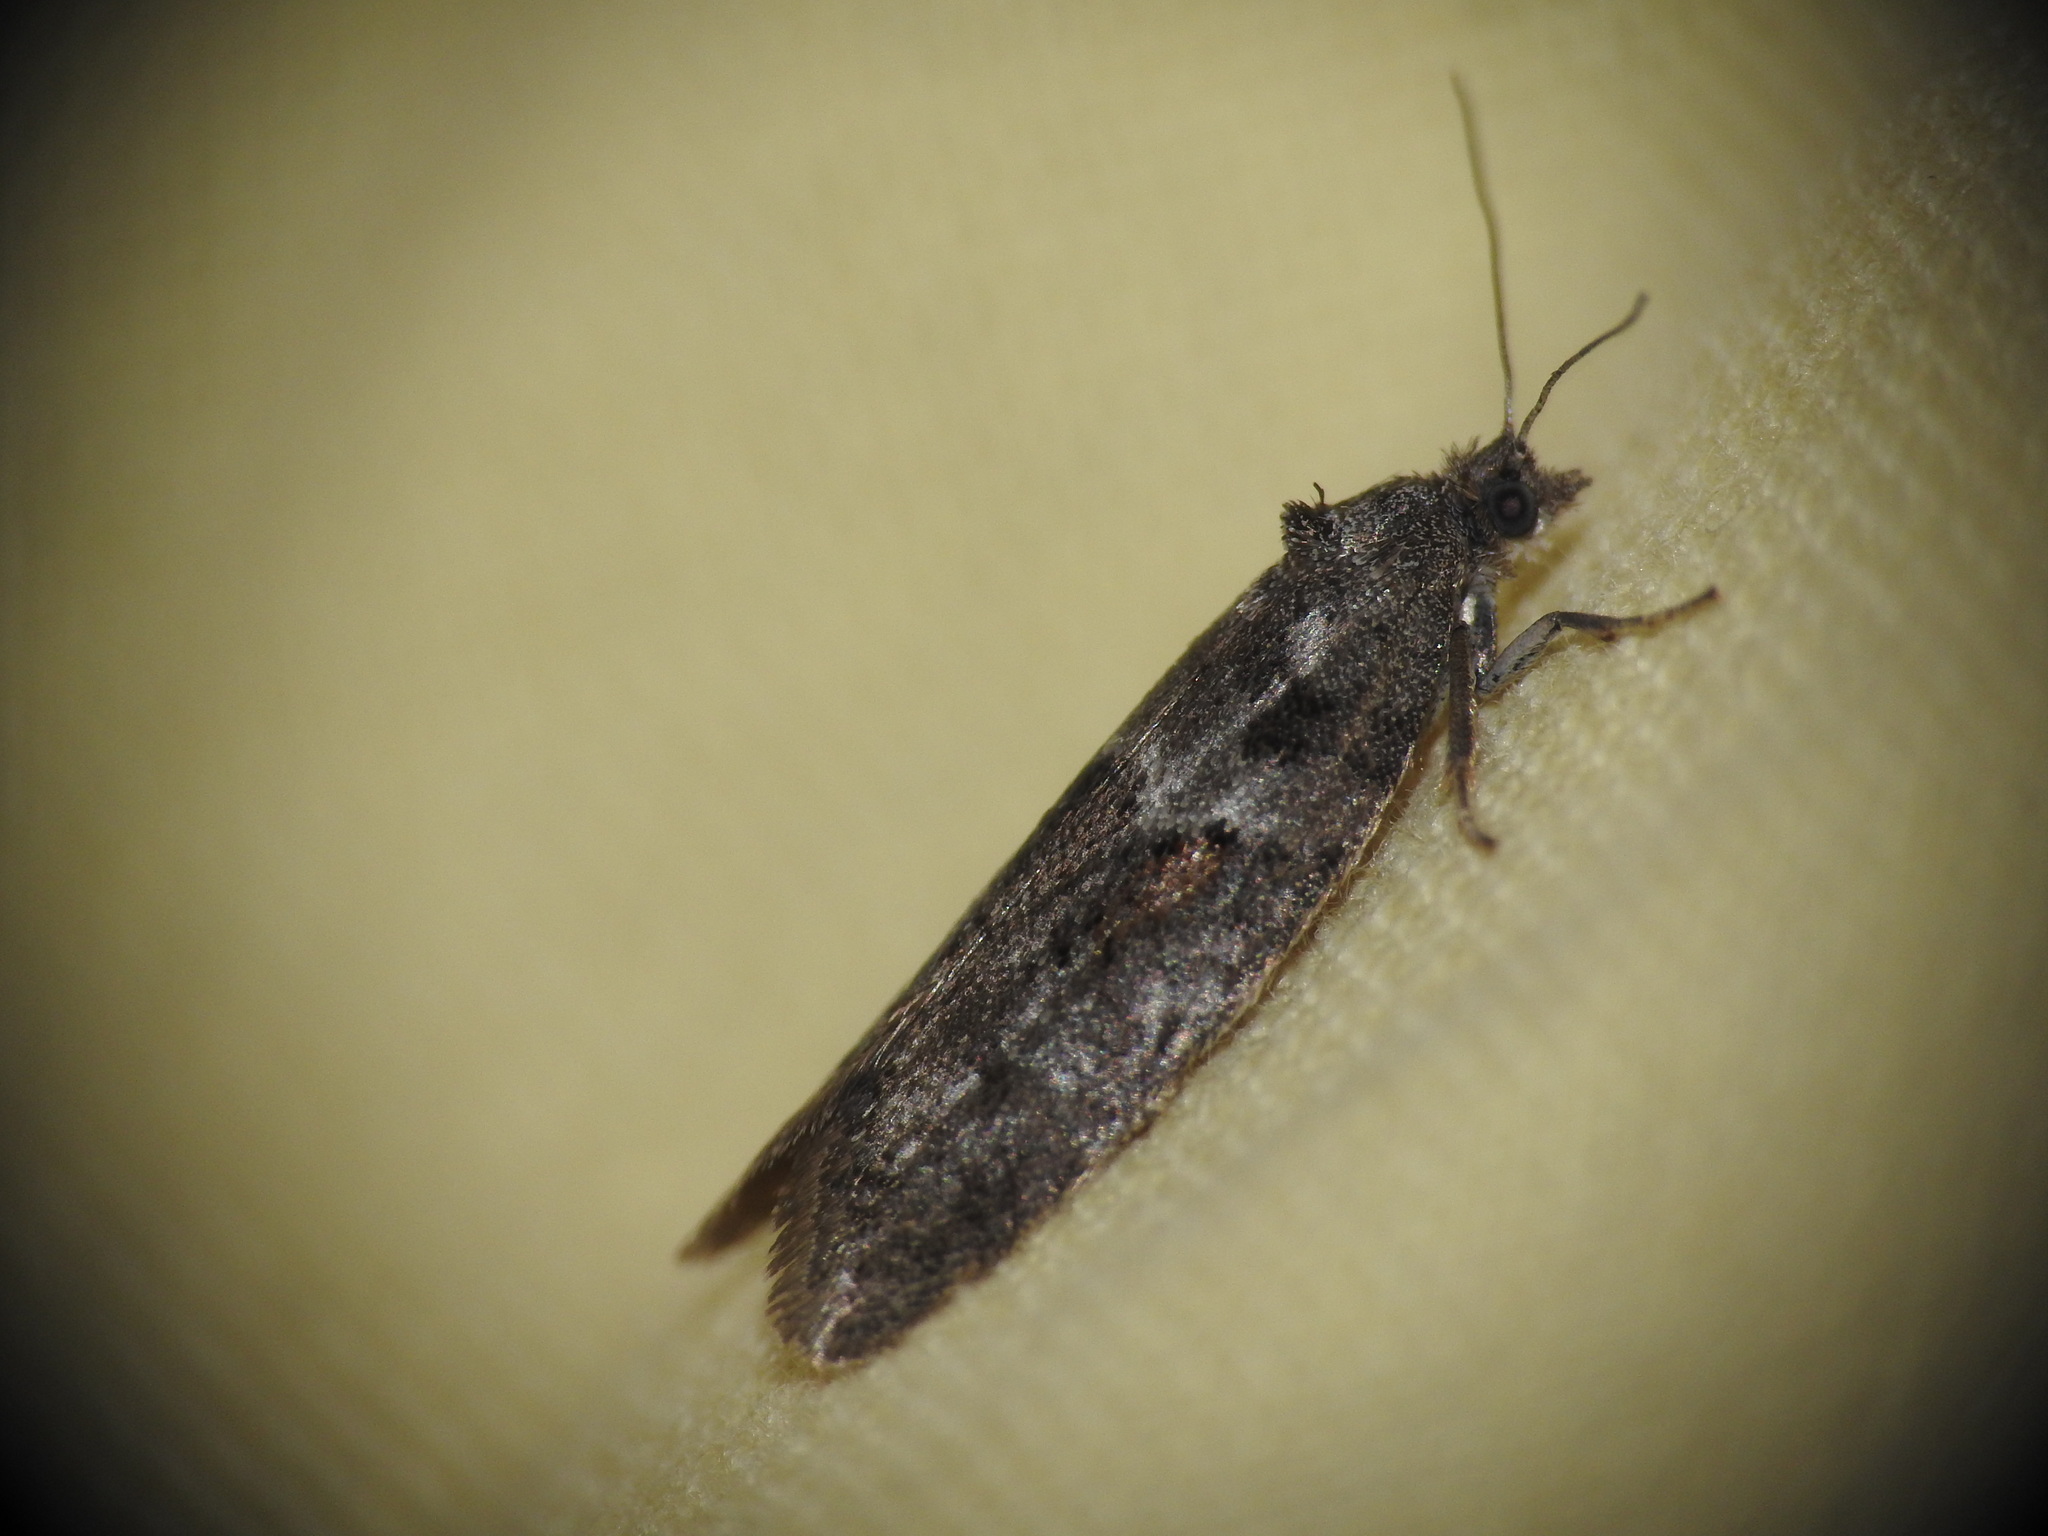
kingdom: Animalia
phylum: Arthropoda
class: Insecta
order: Lepidoptera
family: Tortricidae
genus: Tortricodes
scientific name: Tortricodes alternella
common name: Winter shade
